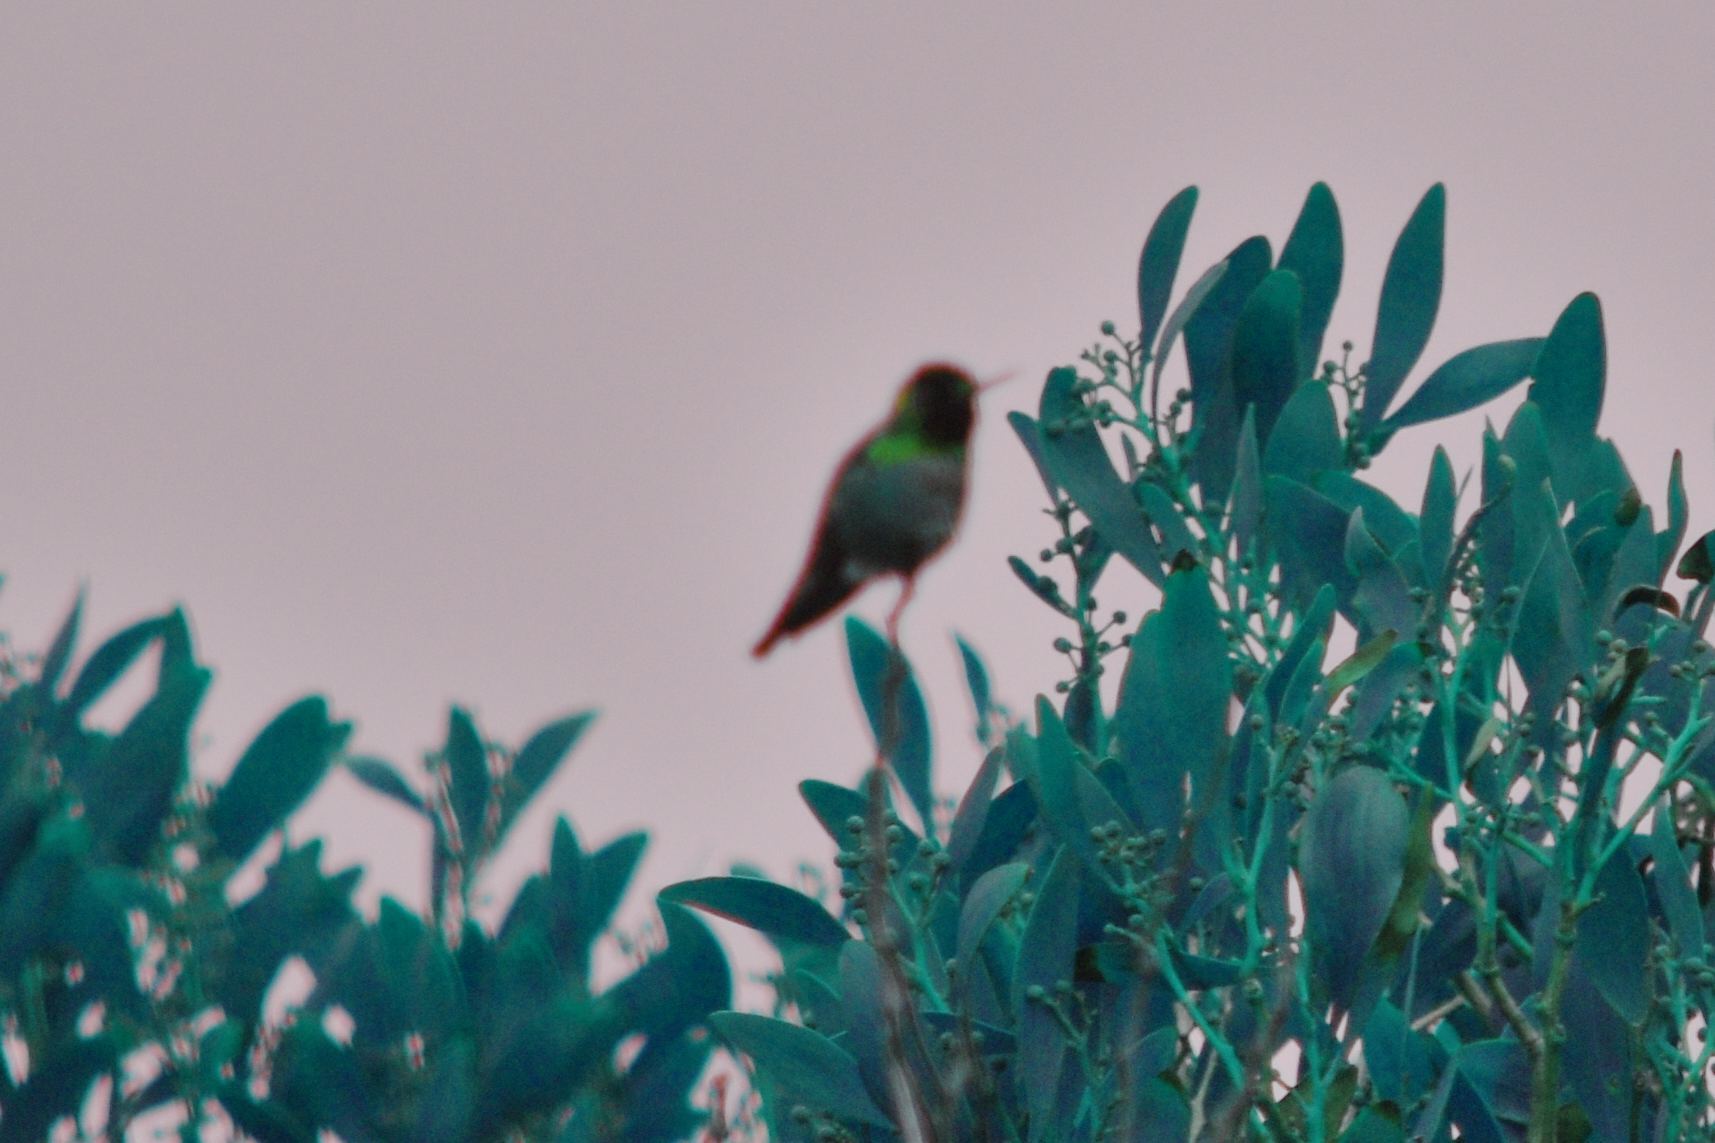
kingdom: Animalia
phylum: Chordata
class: Aves
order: Apodiformes
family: Trochilidae
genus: Calypte
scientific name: Calypte anna
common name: Anna's hummingbird
